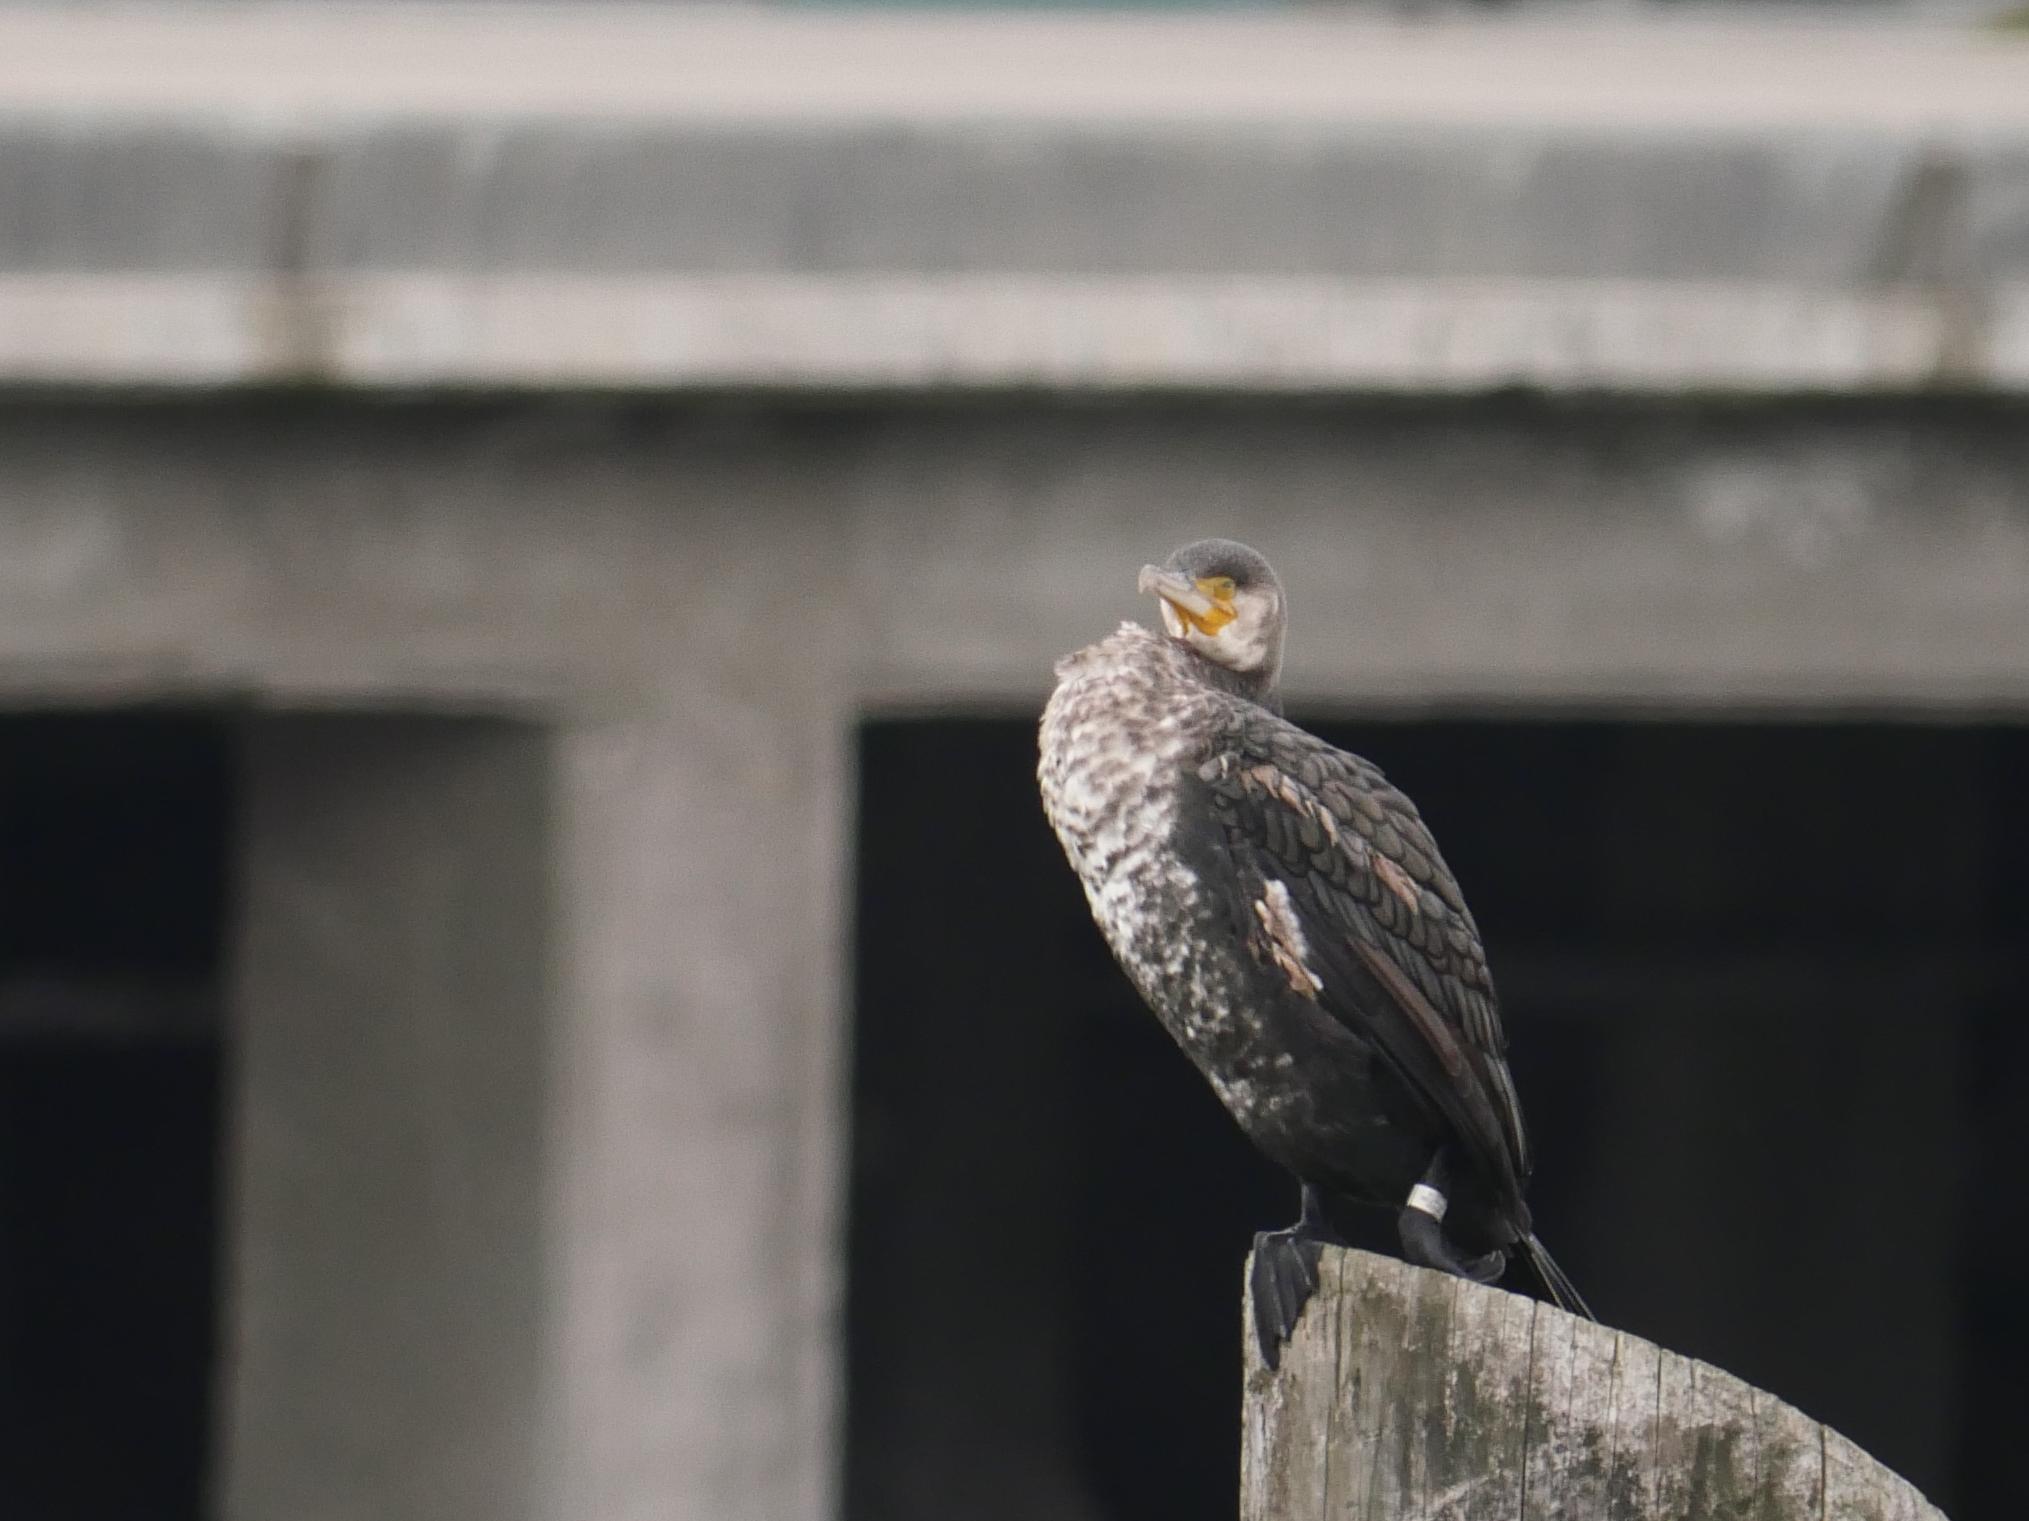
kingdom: Animalia
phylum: Chordata
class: Aves
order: Suliformes
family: Phalacrocoracidae
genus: Phalacrocorax
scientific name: Phalacrocorax carbo
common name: Great cormorant
